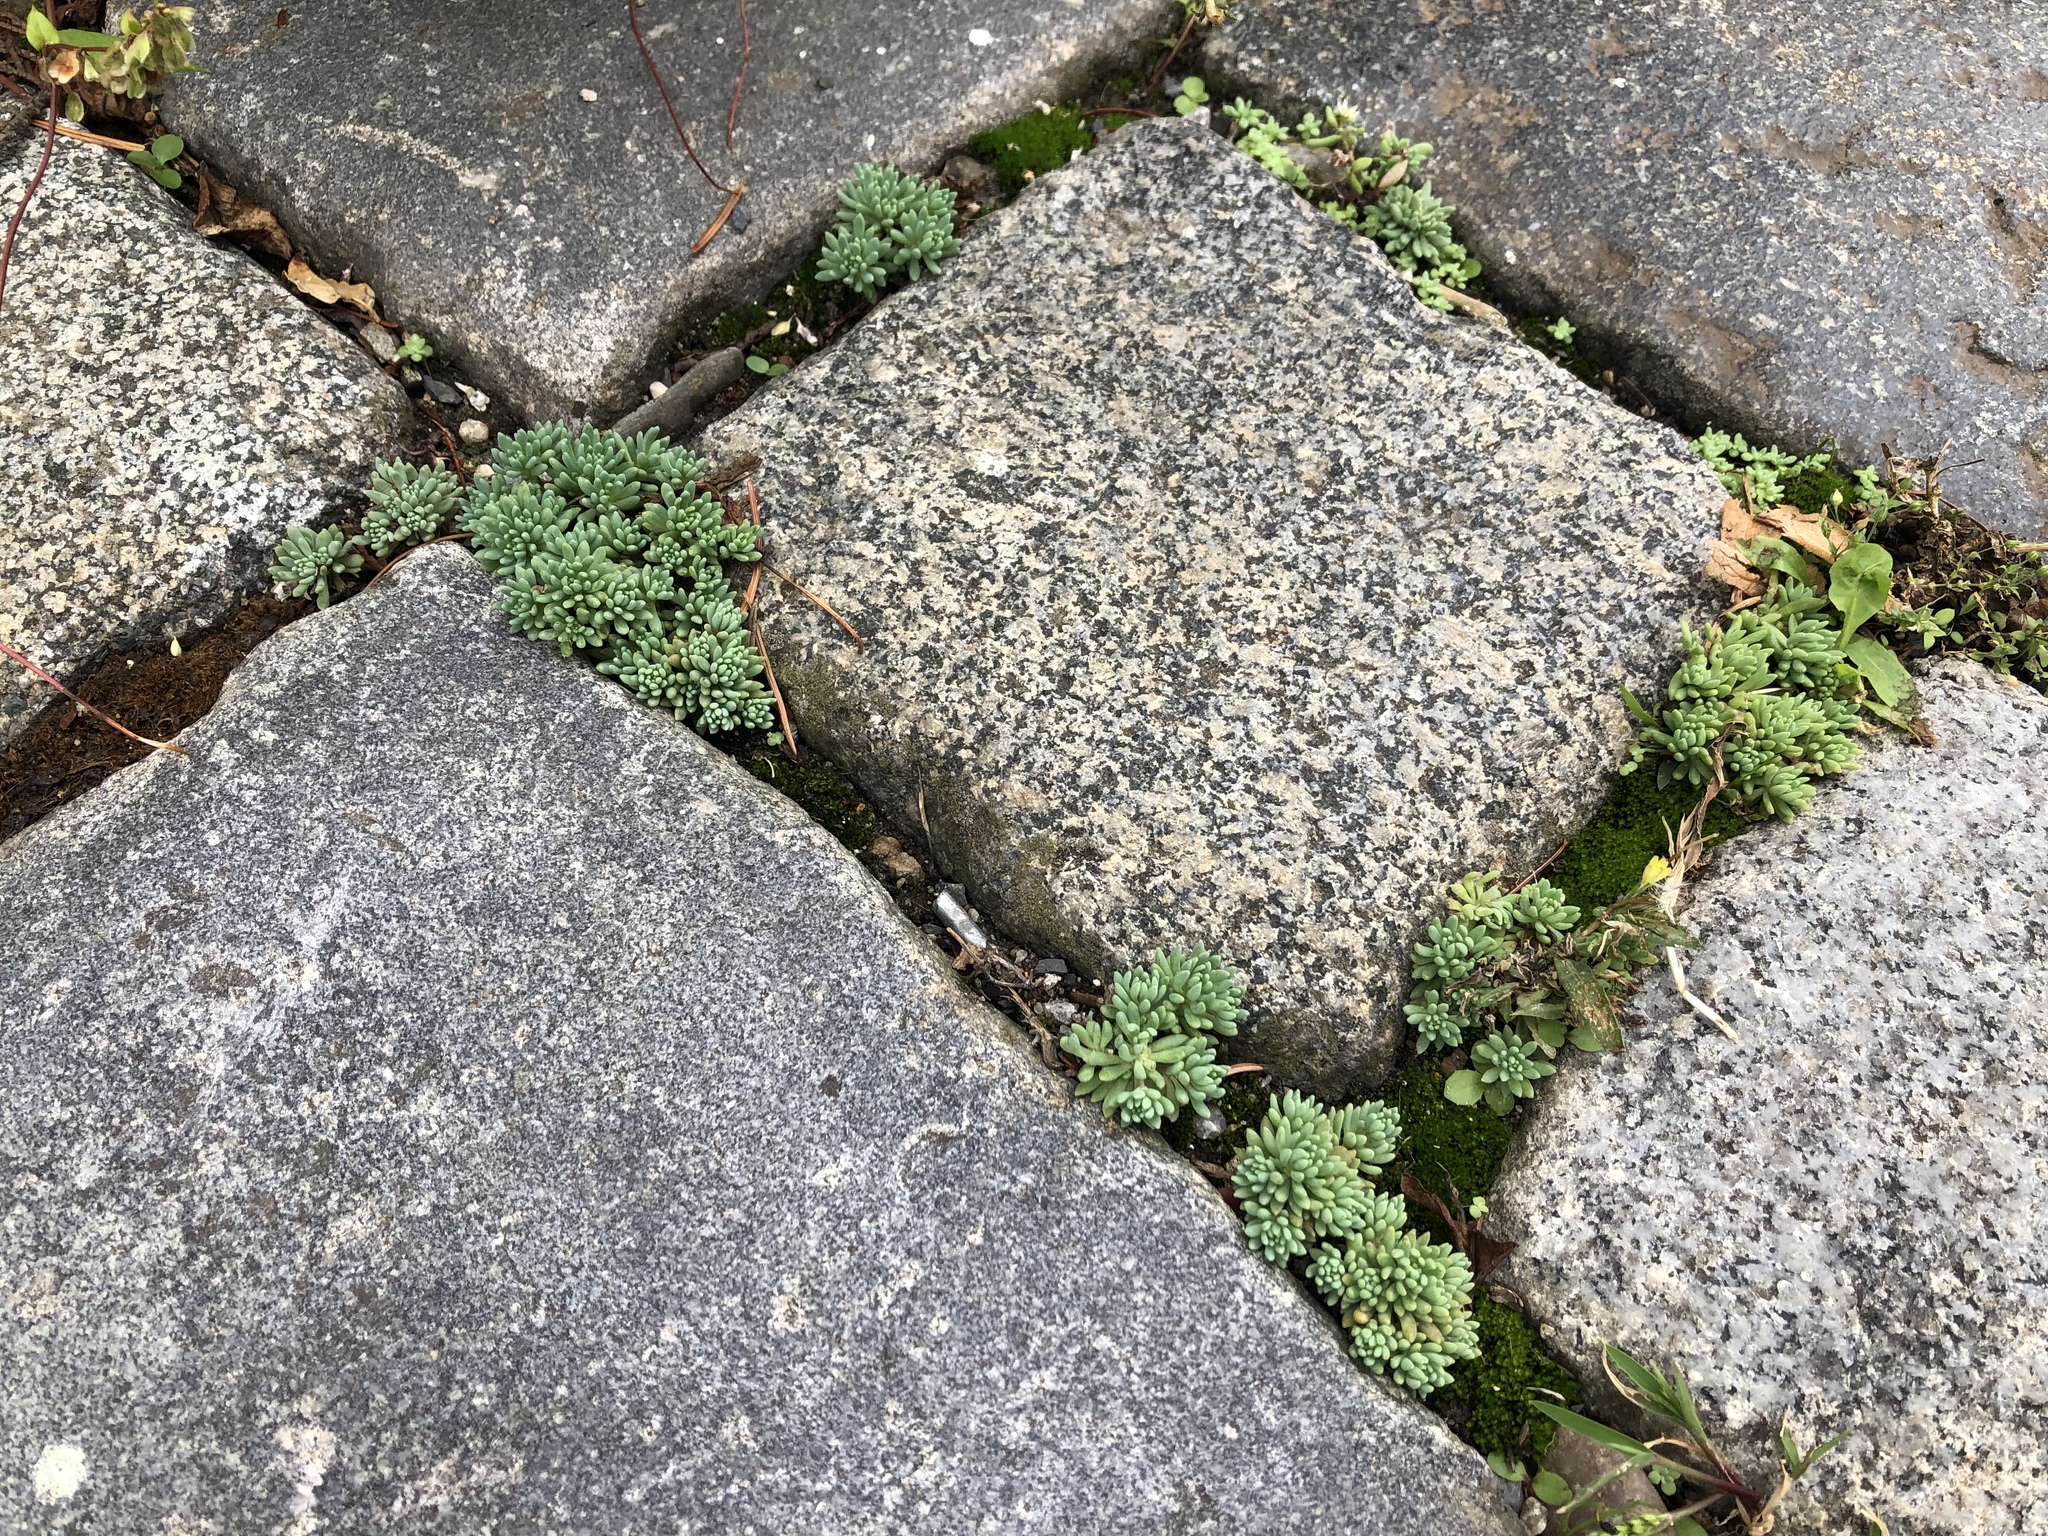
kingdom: Plantae
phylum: Tracheophyta
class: Magnoliopsida
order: Saxifragales
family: Crassulaceae
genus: Sedum
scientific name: Sedum hispanicum
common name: Spanish stonecrop
